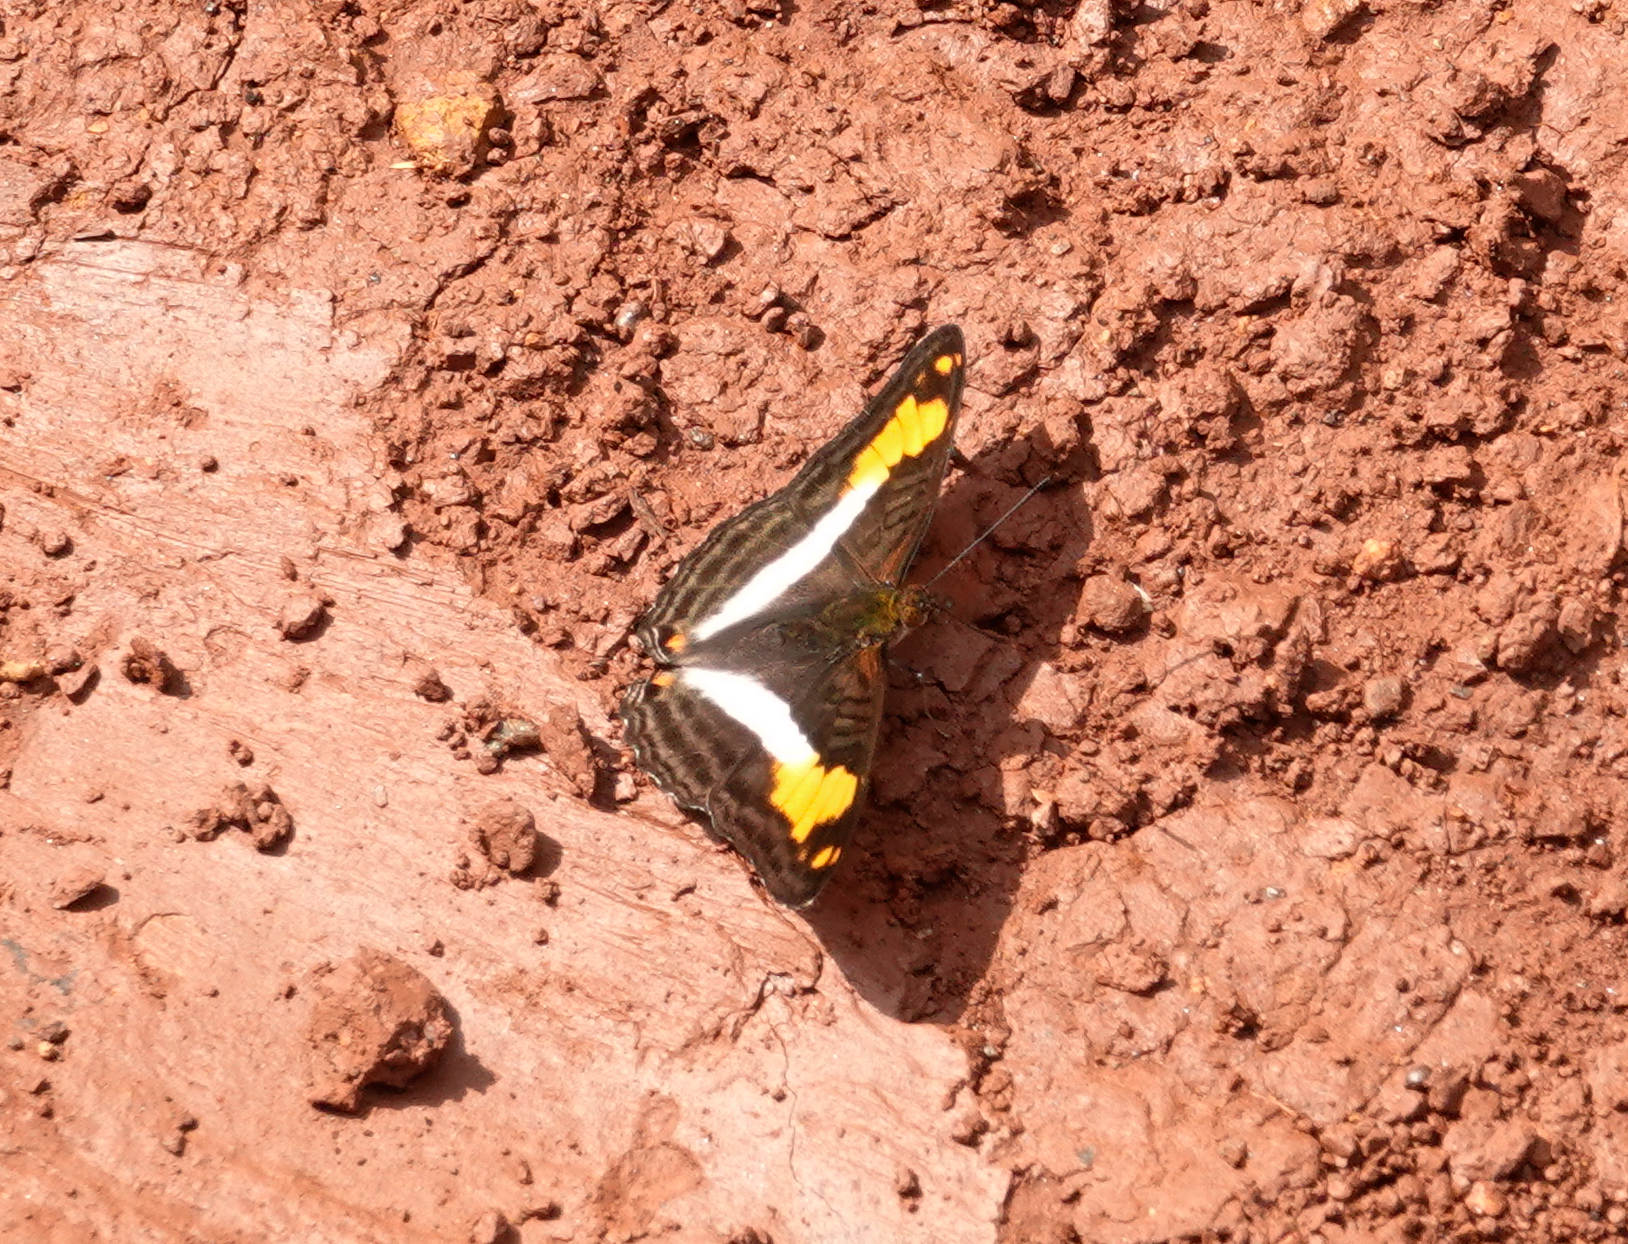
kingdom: Animalia
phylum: Arthropoda
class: Insecta
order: Lepidoptera
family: Nymphalidae
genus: Limenitis
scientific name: Limenitis malea
